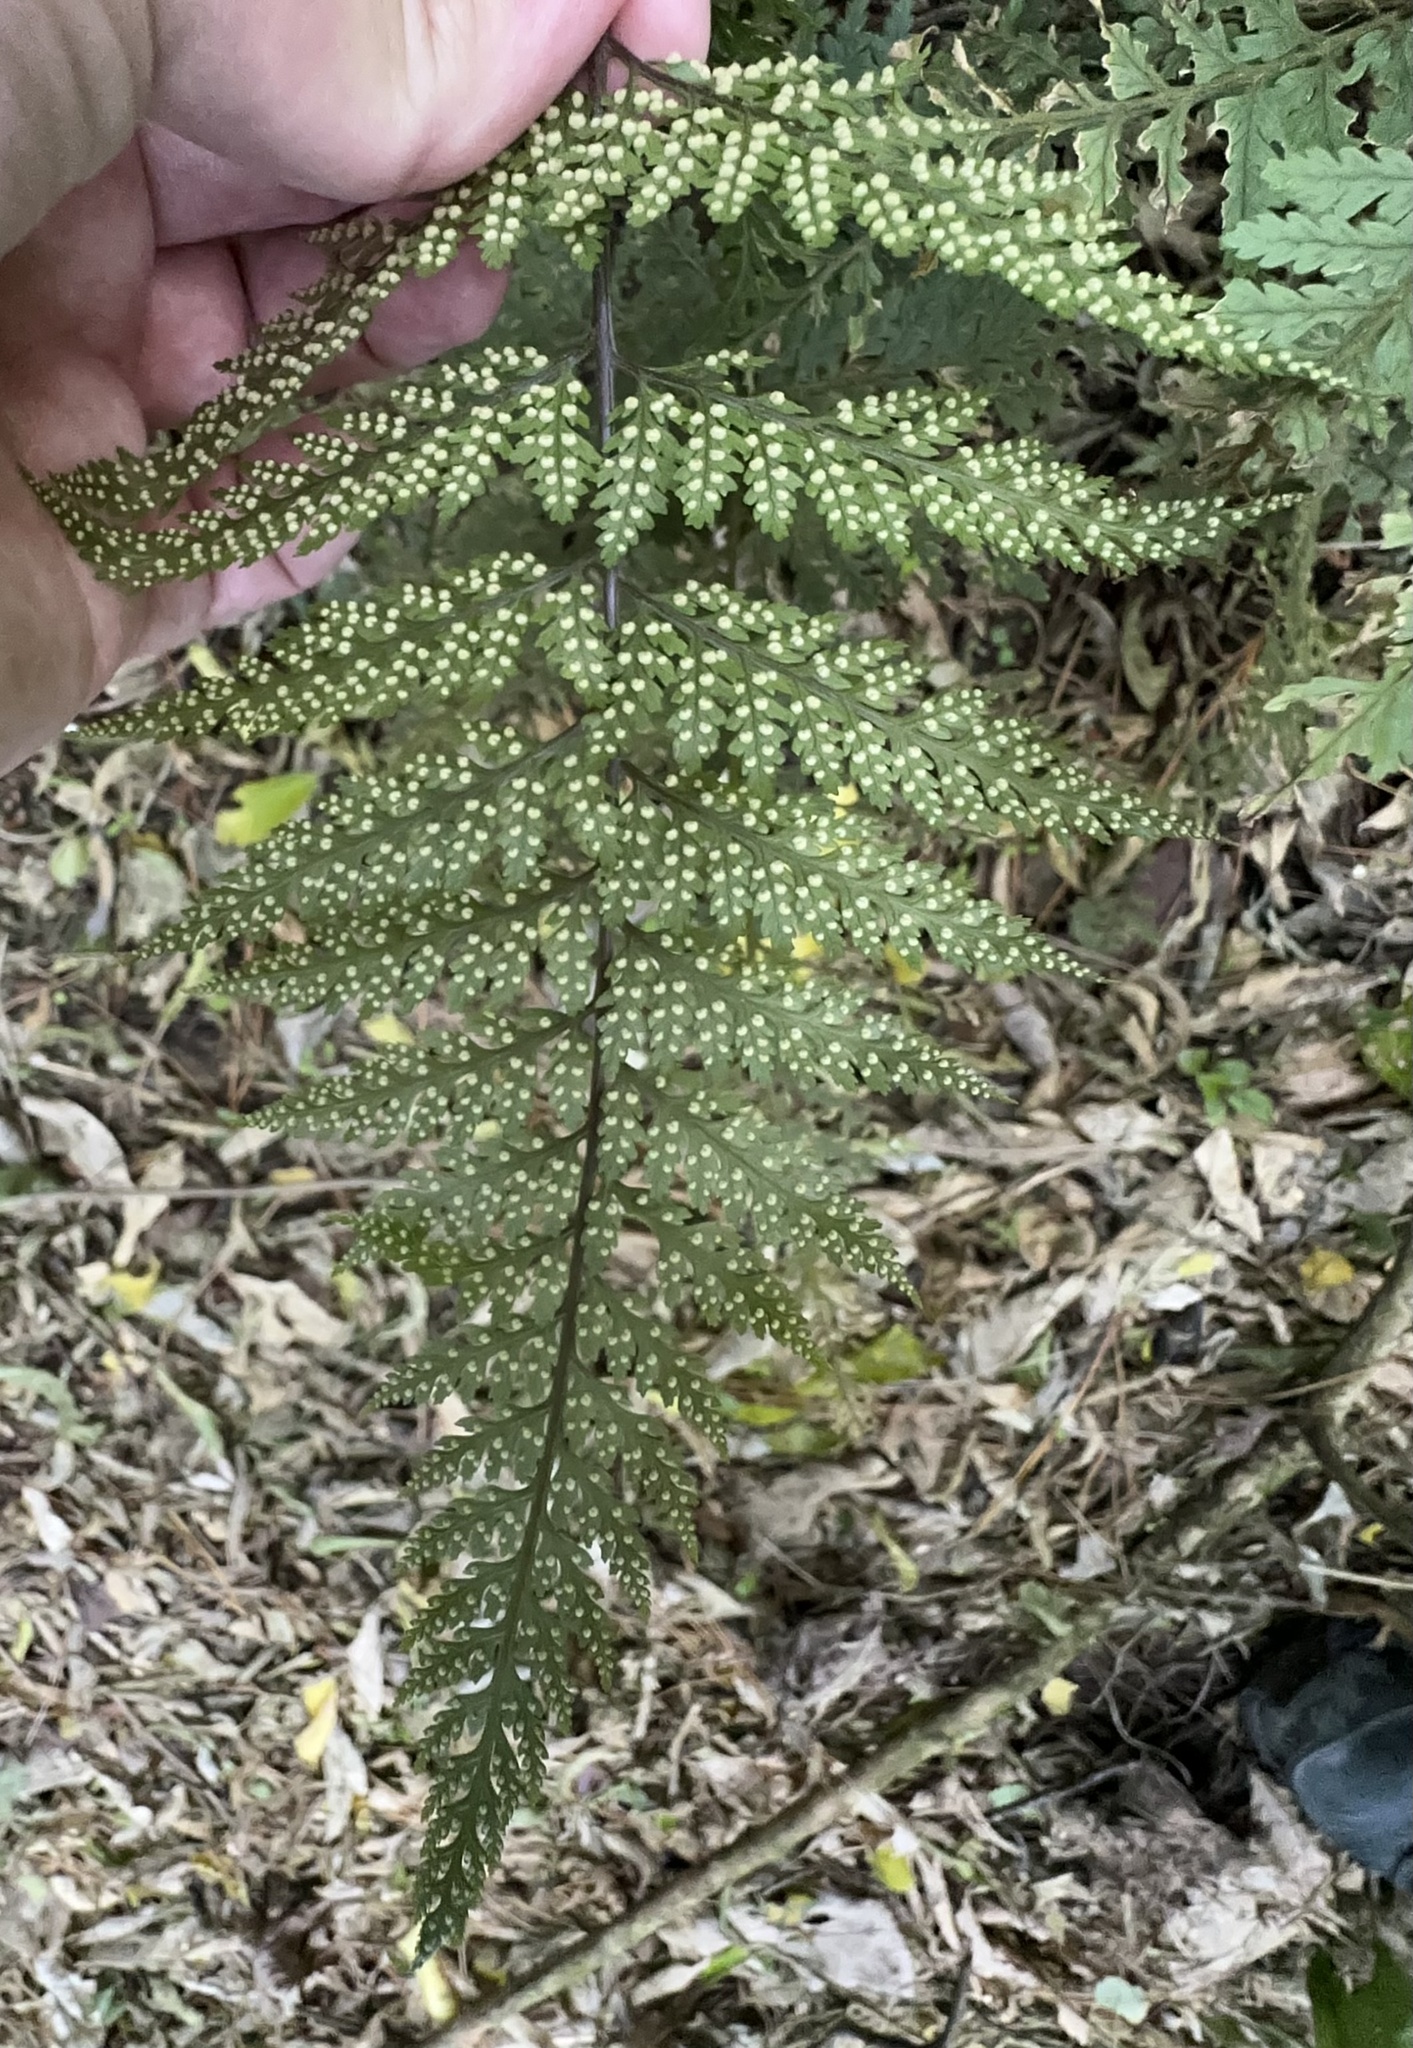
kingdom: Plantae
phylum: Tracheophyta
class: Polypodiopsida
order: Polypodiales
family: Dryopteridaceae
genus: Parapolystichum
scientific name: Parapolystichum glabellum
